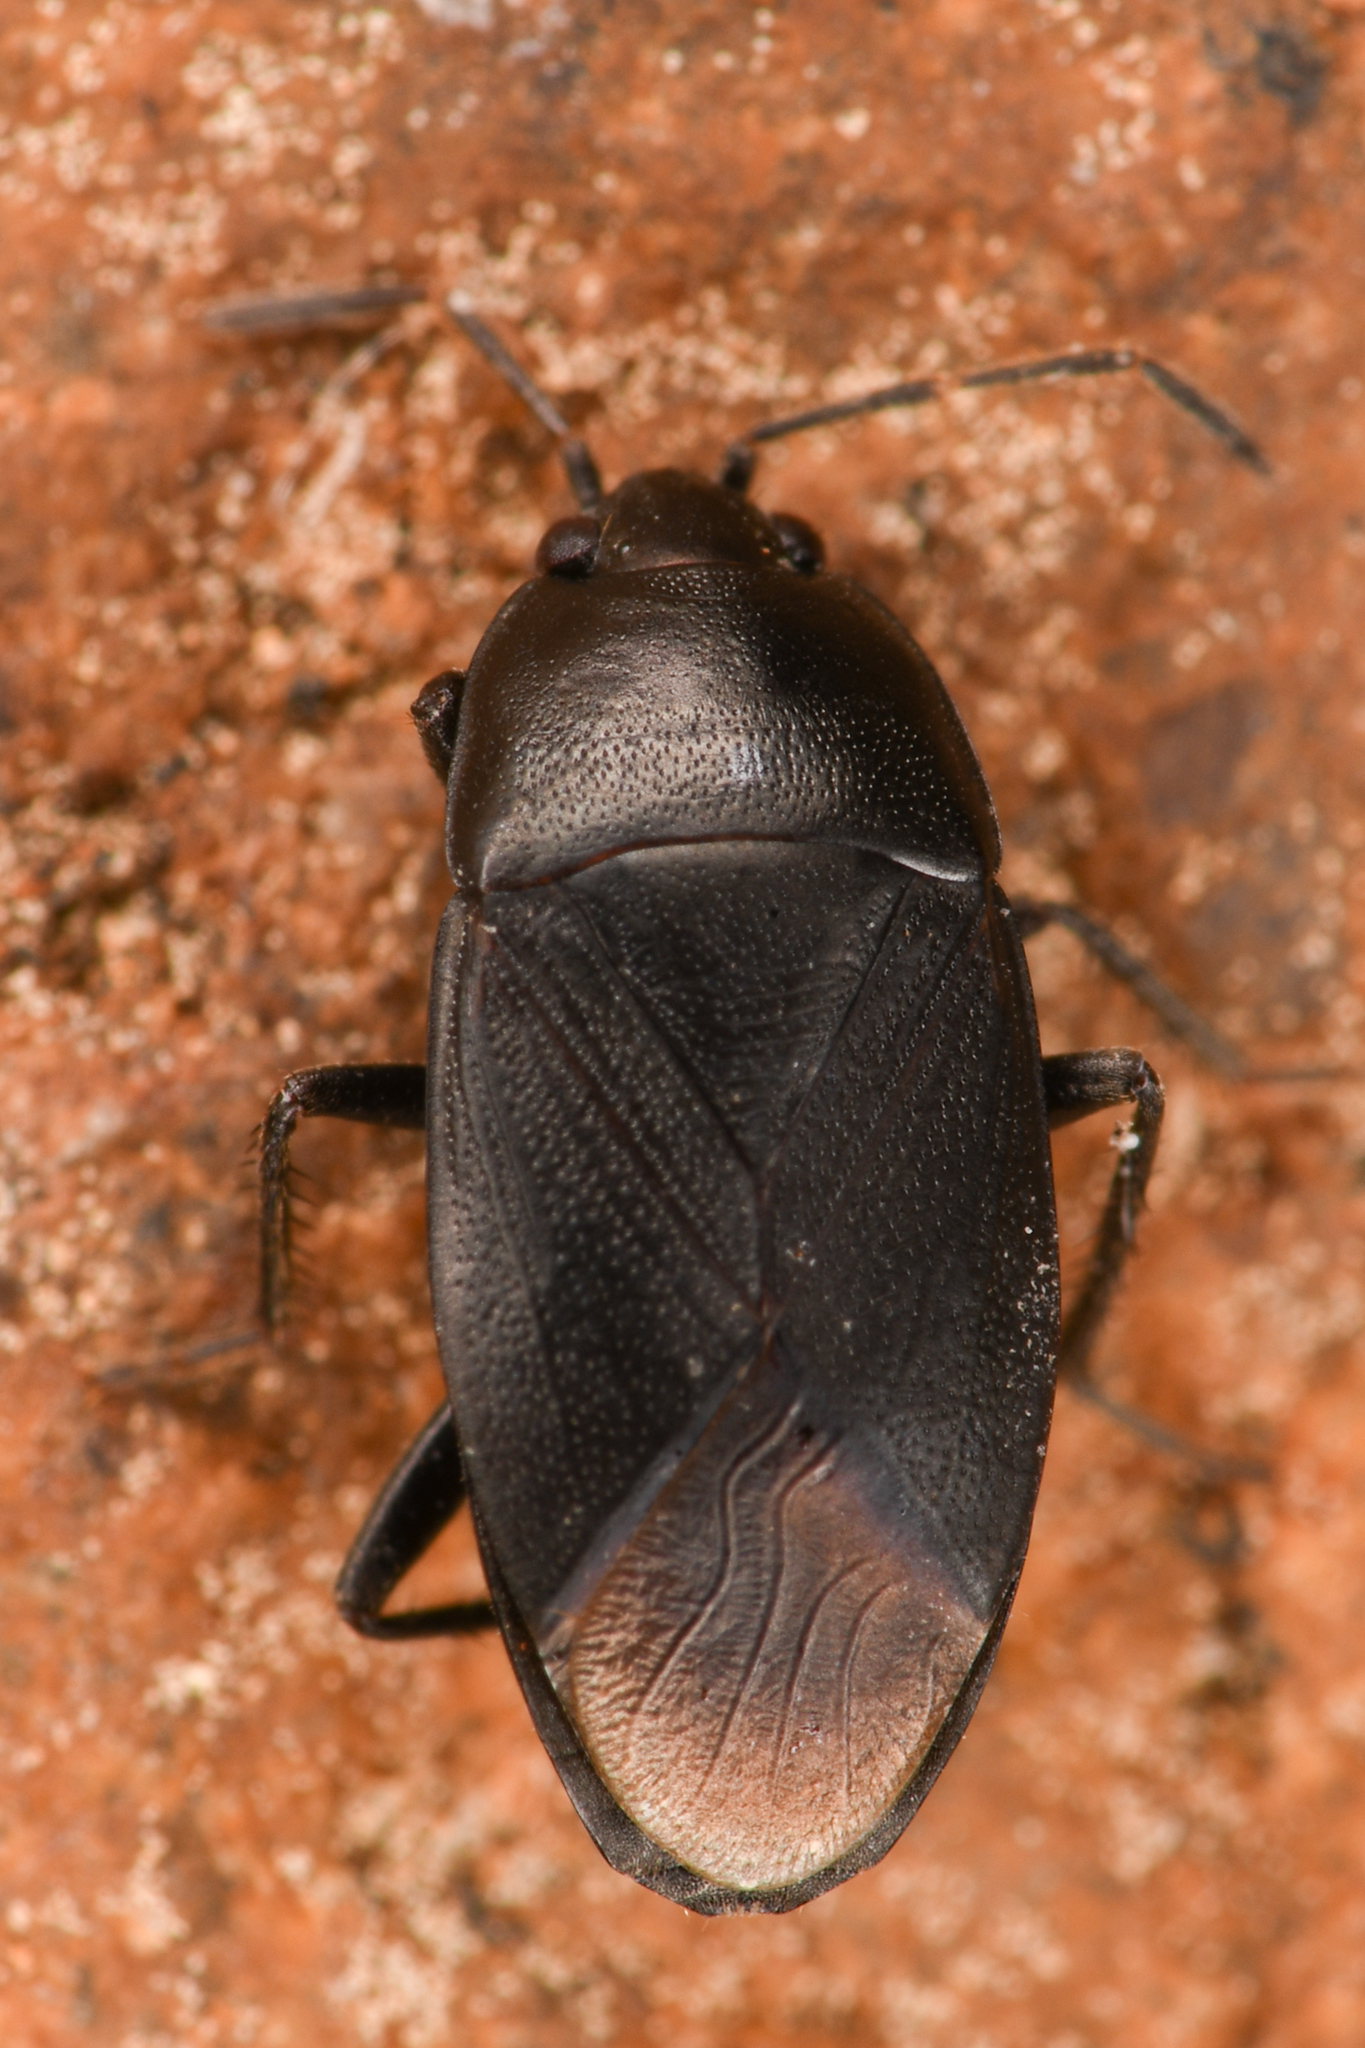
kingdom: Animalia
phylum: Arthropoda
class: Insecta
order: Hemiptera
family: Rhyparochromidae
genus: Atrazonotus
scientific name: Atrazonotus umbrosus
